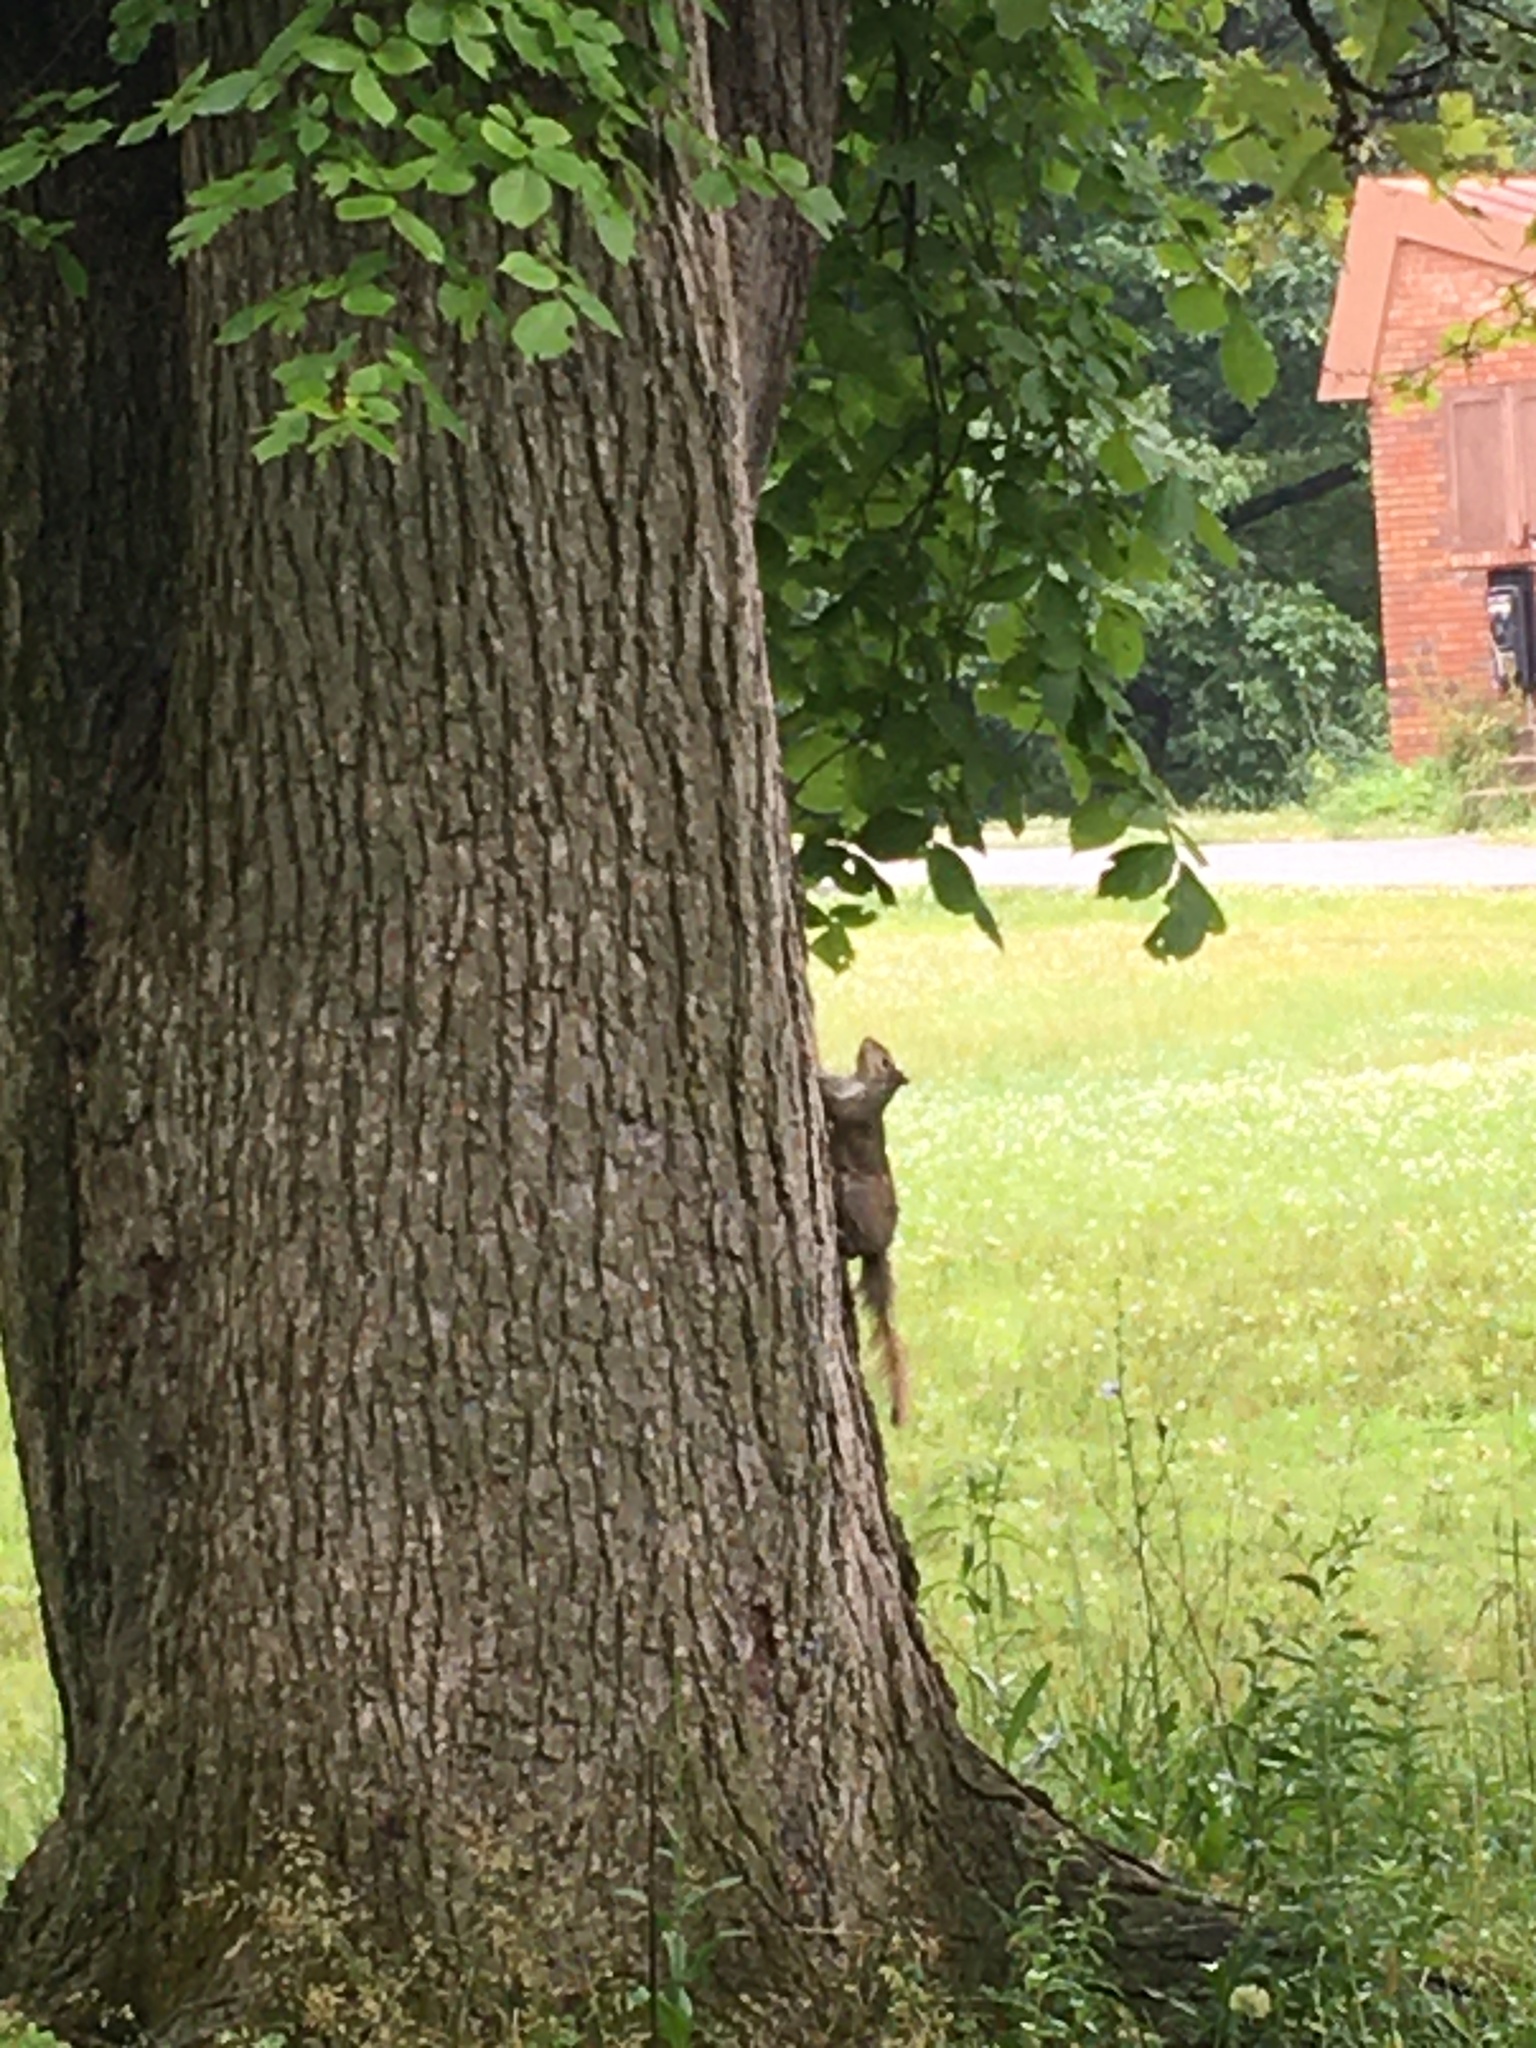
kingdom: Animalia
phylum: Chordata
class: Mammalia
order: Rodentia
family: Sciuridae
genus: Sciurus
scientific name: Sciurus carolinensis
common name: Eastern gray squirrel
